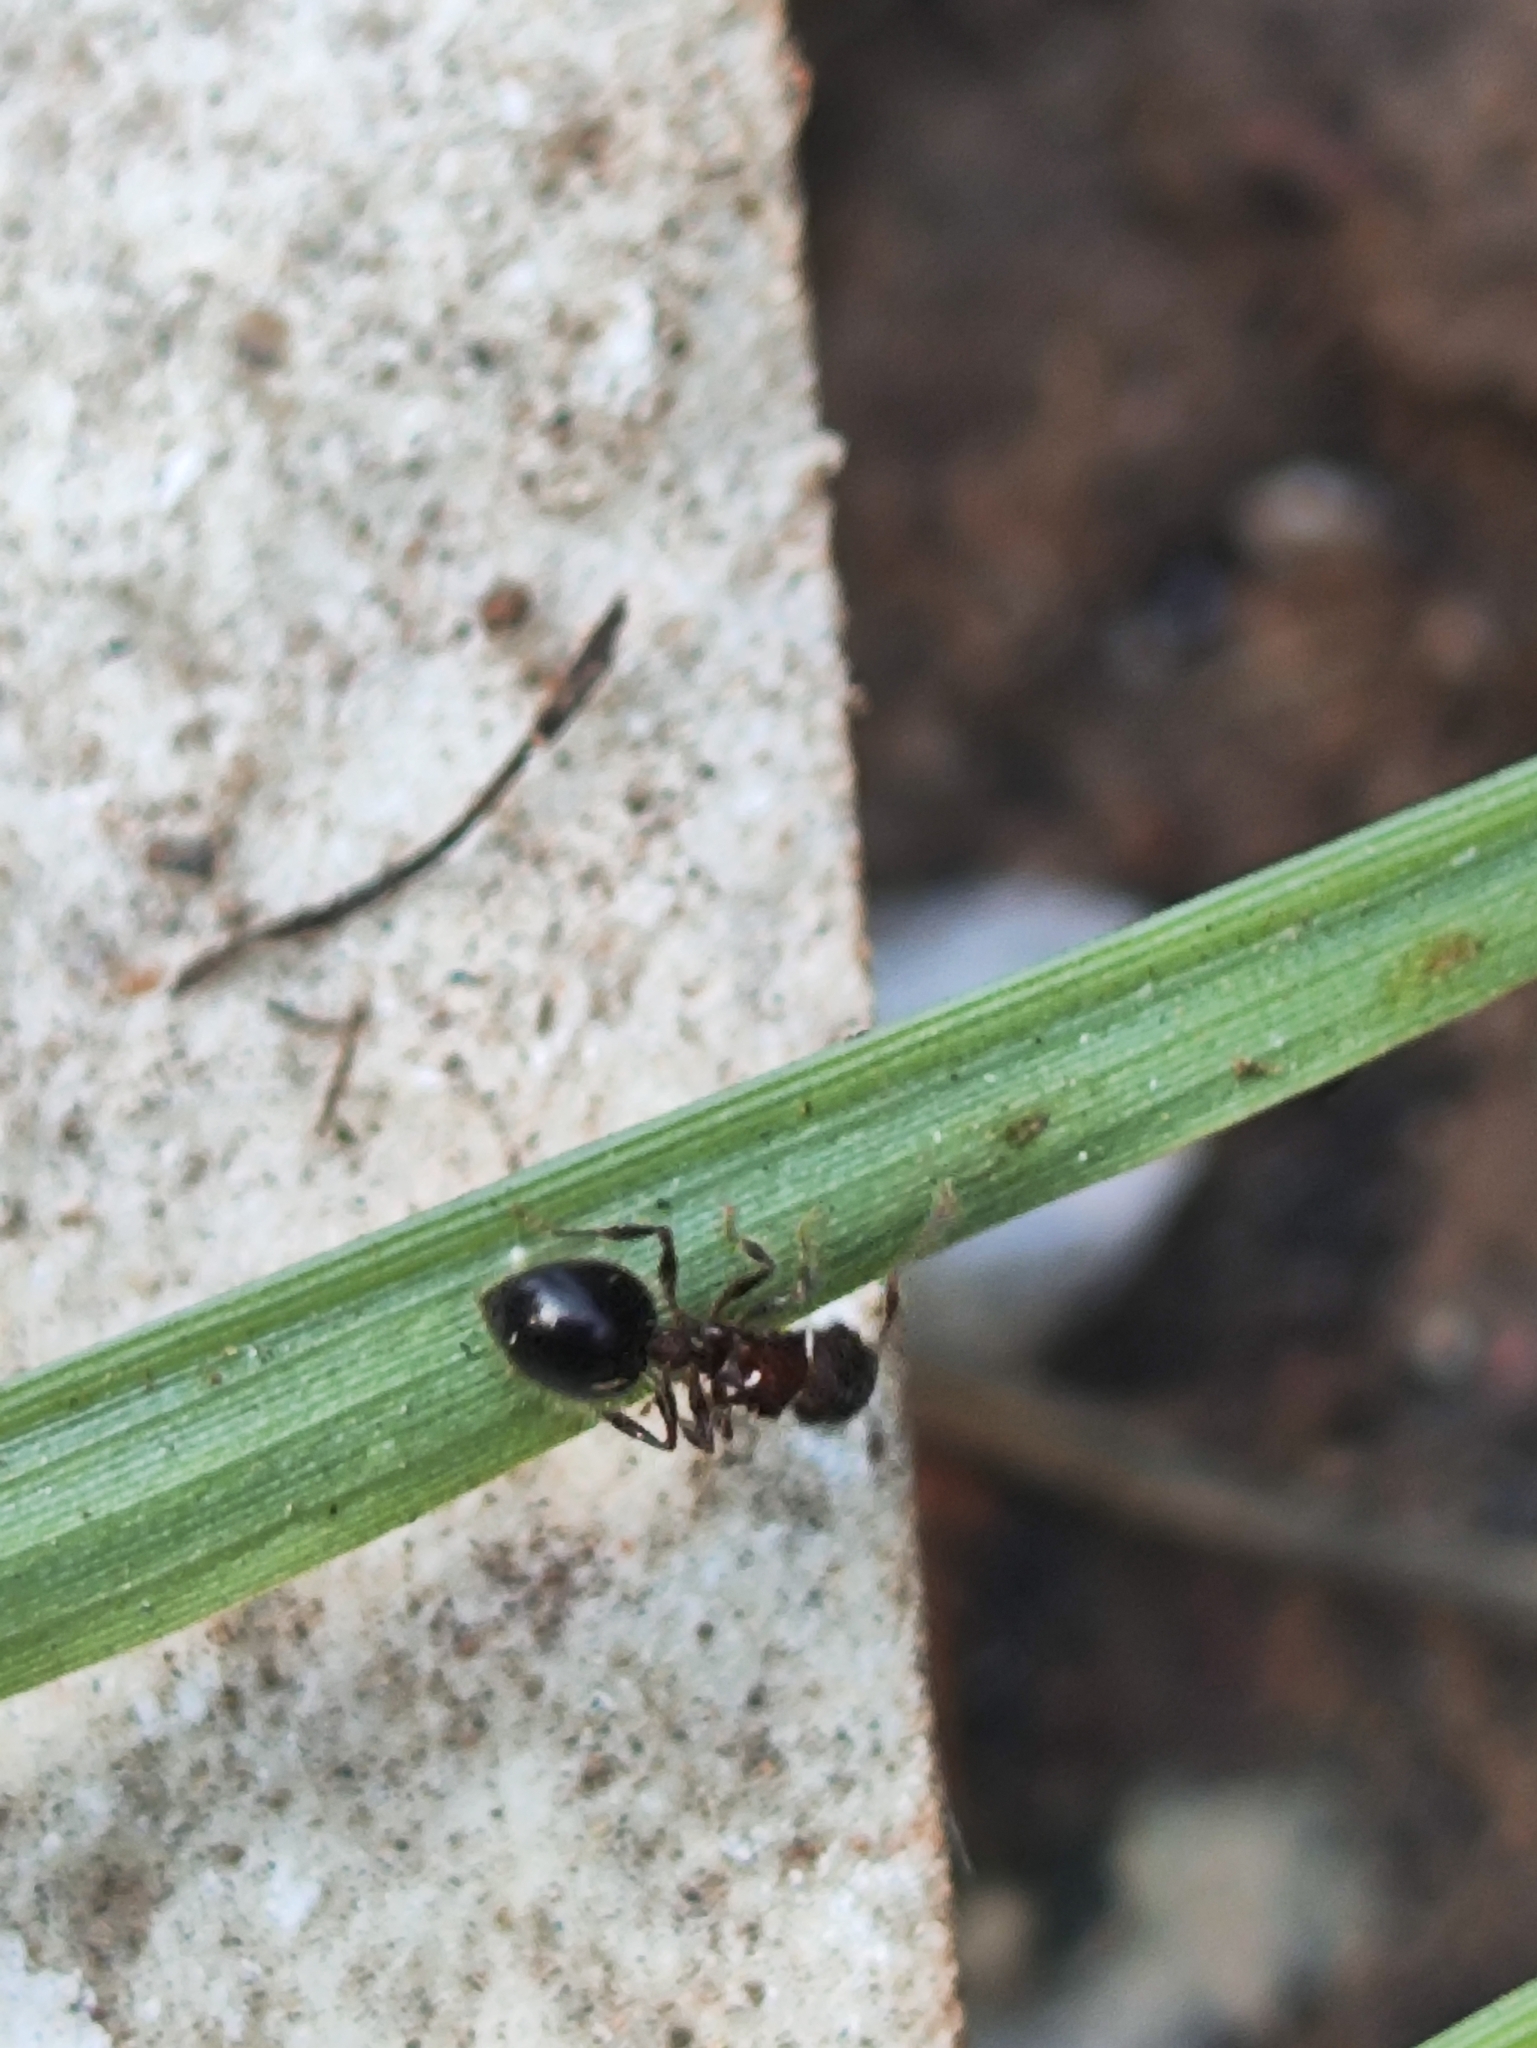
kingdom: Animalia
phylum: Arthropoda
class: Insecta
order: Hymenoptera
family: Formicidae
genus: Meranoplus
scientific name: Meranoplus bicolor
